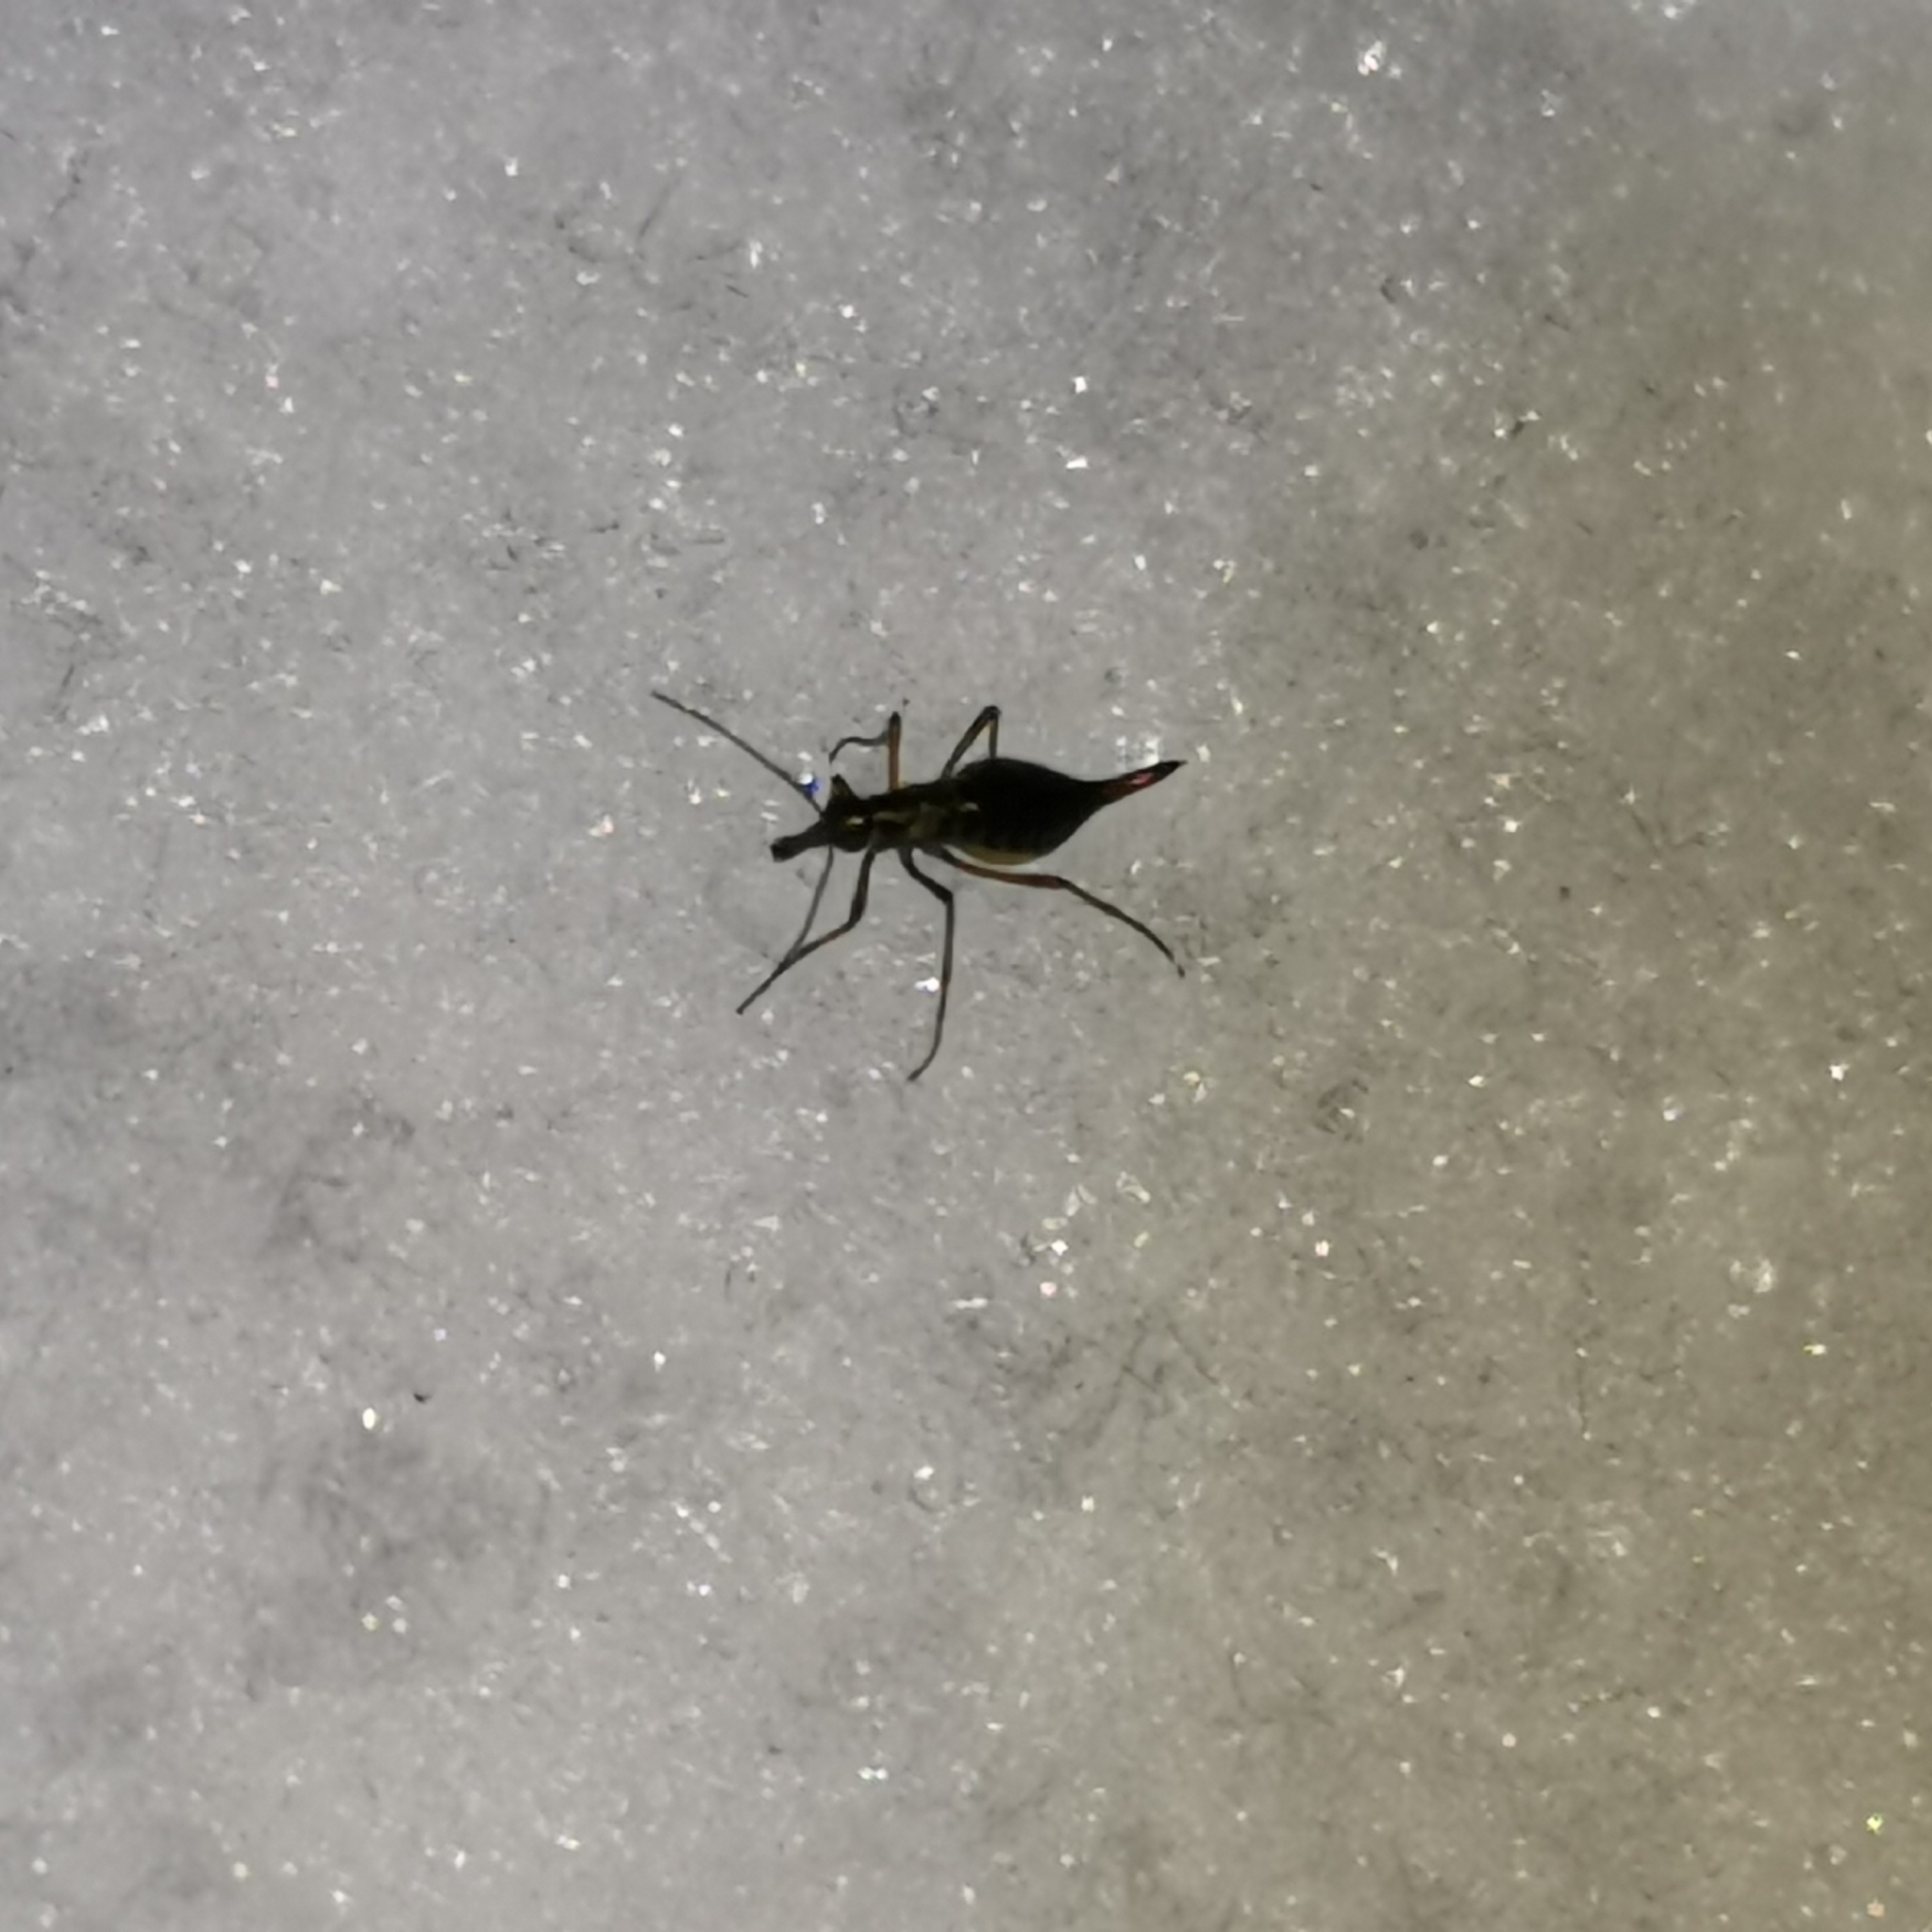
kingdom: Animalia
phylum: Arthropoda
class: Insecta
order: Mecoptera
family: Boreidae
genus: Boreus
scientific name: Boreus westwoodi
